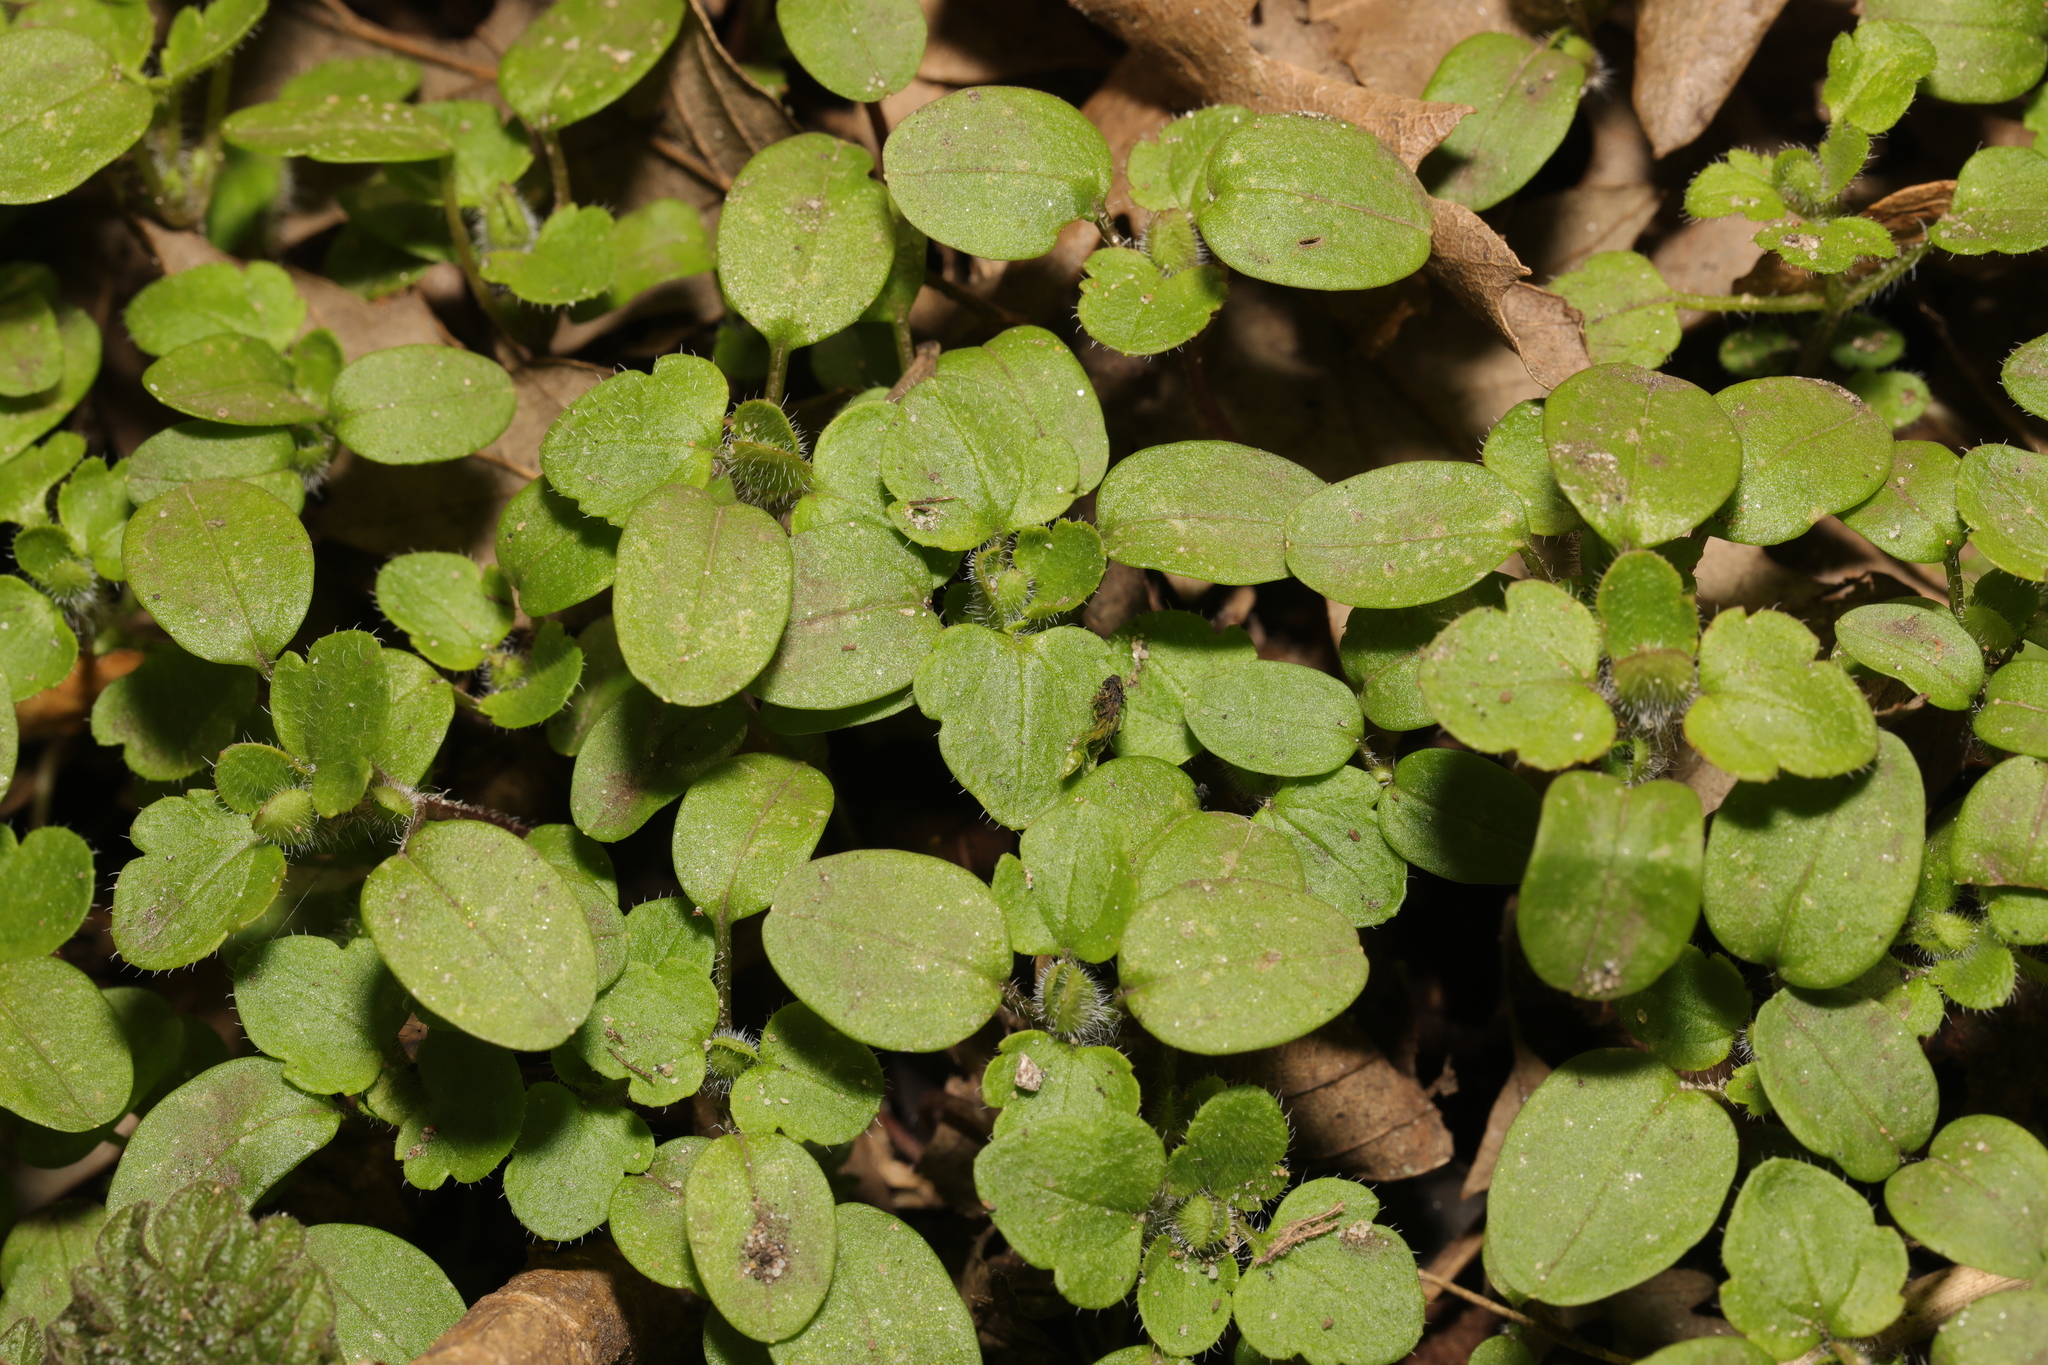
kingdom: Plantae
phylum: Tracheophyta
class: Magnoliopsida
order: Lamiales
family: Plantaginaceae
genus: Veronica
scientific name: Veronica sublobata
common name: False ivy-leaved speedwell
